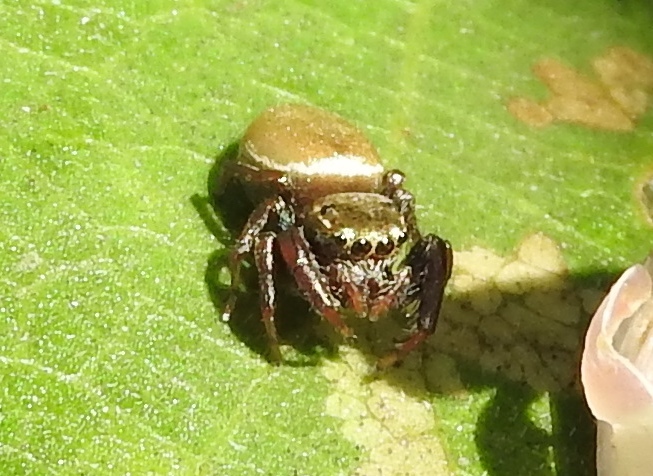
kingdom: Animalia
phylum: Arthropoda
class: Arachnida
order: Araneae
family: Salticidae
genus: Messua
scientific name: Messua limbata
